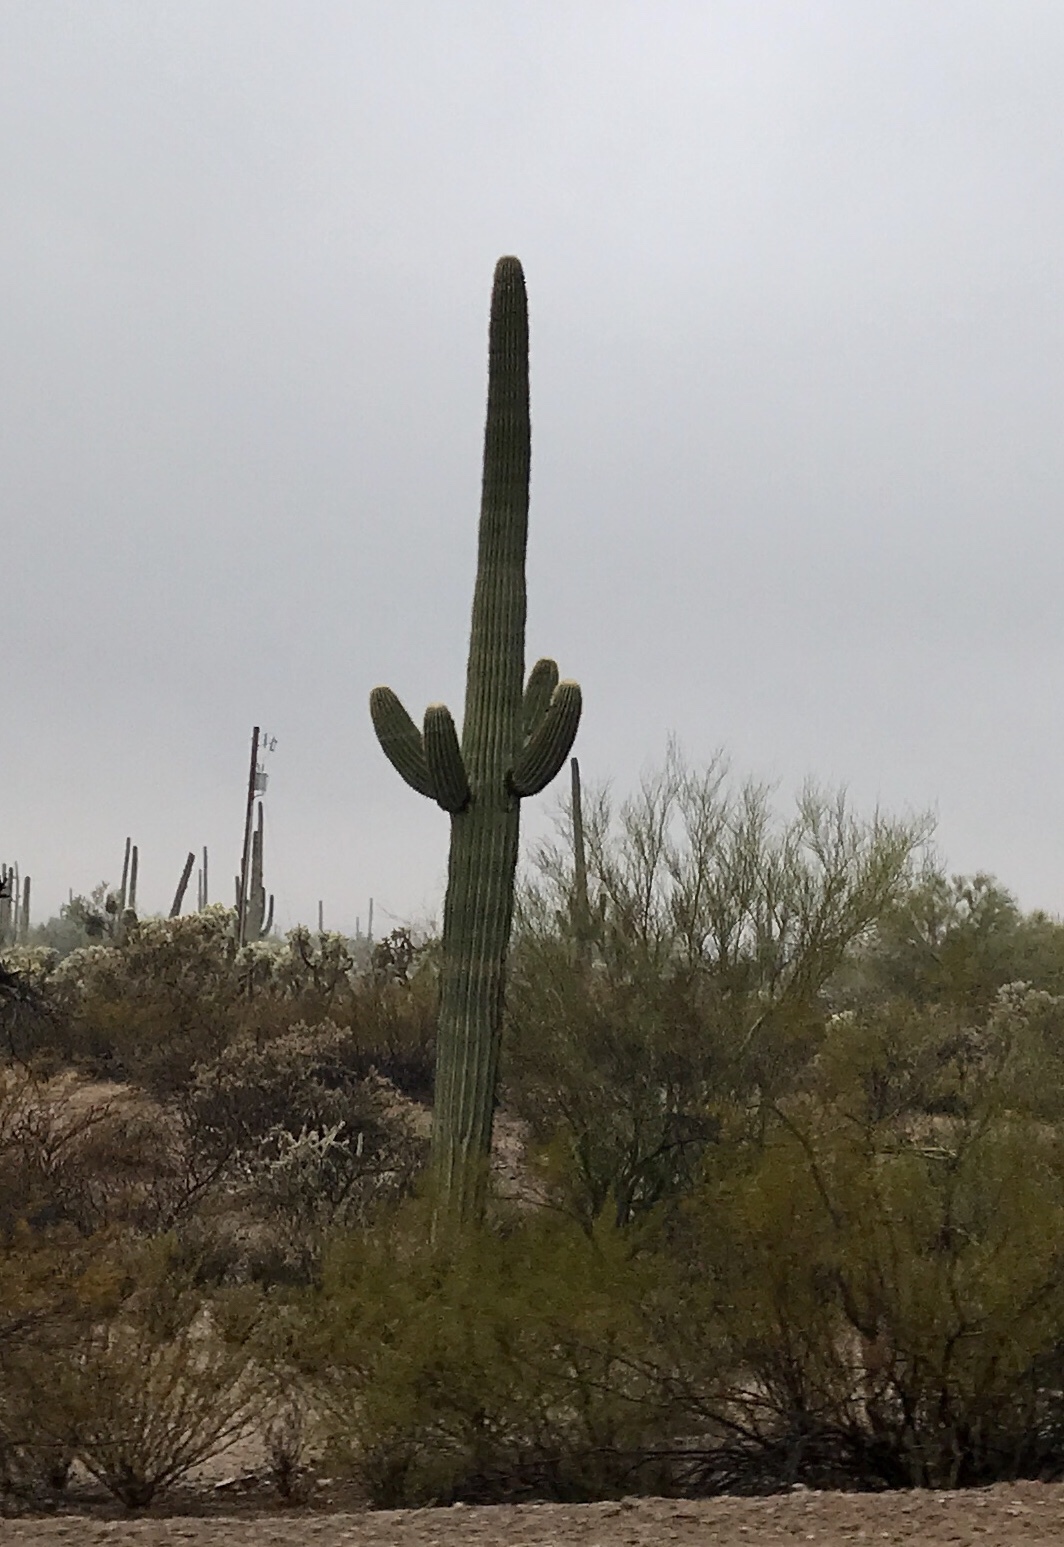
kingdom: Plantae
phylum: Tracheophyta
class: Magnoliopsida
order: Caryophyllales
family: Cactaceae
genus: Carnegiea
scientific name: Carnegiea gigantea
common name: Saguaro
